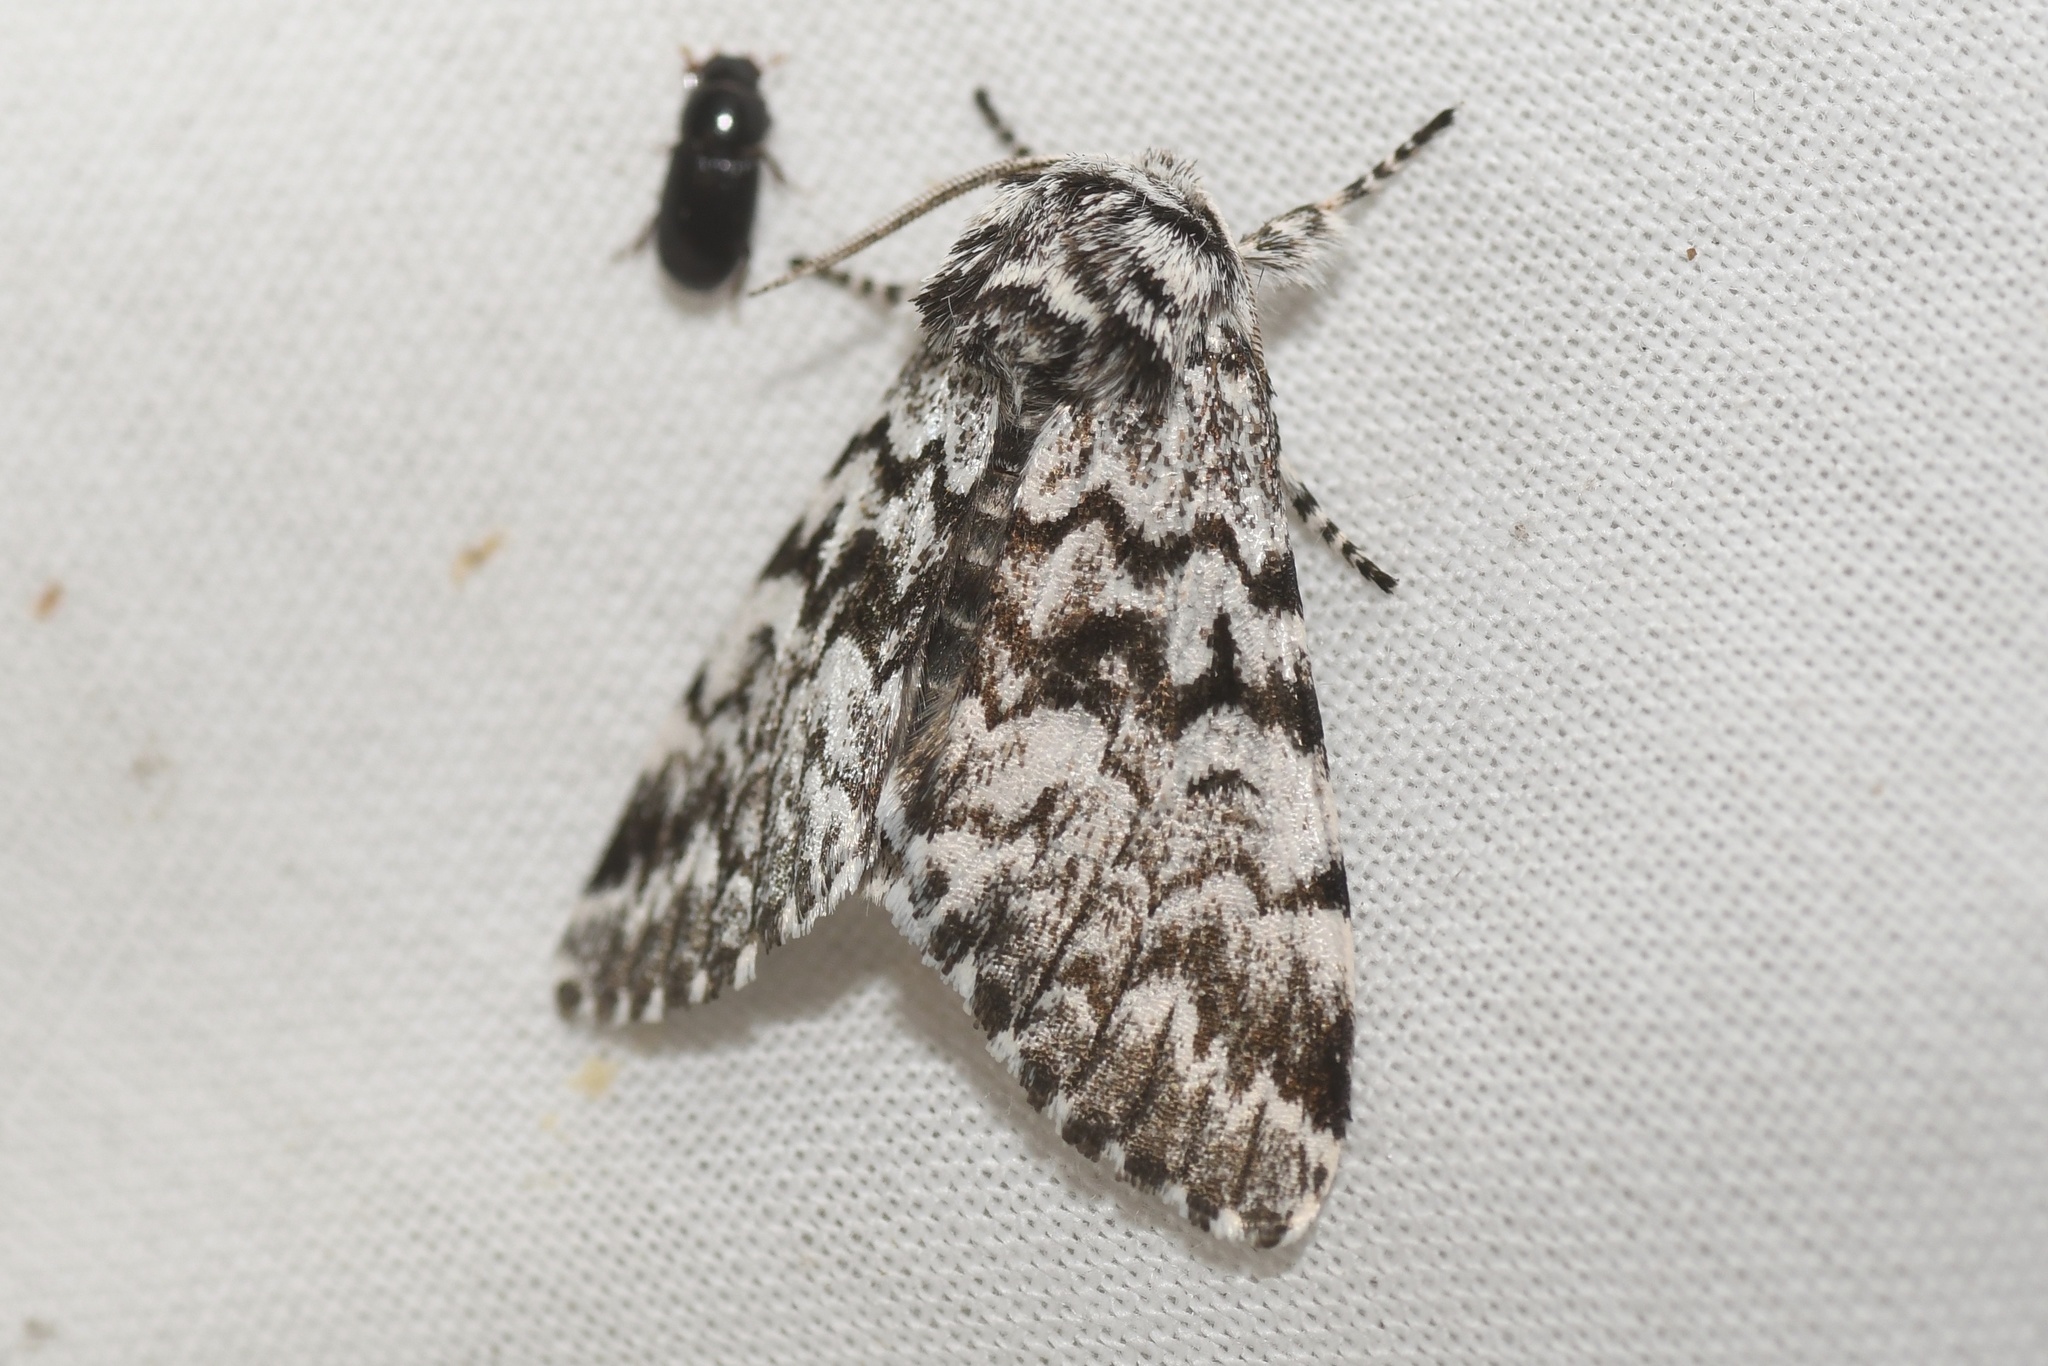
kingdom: Animalia
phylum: Arthropoda
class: Insecta
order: Lepidoptera
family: Noctuidae
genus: Panthea
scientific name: Panthea acronyctoides
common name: Black zigzag moth
